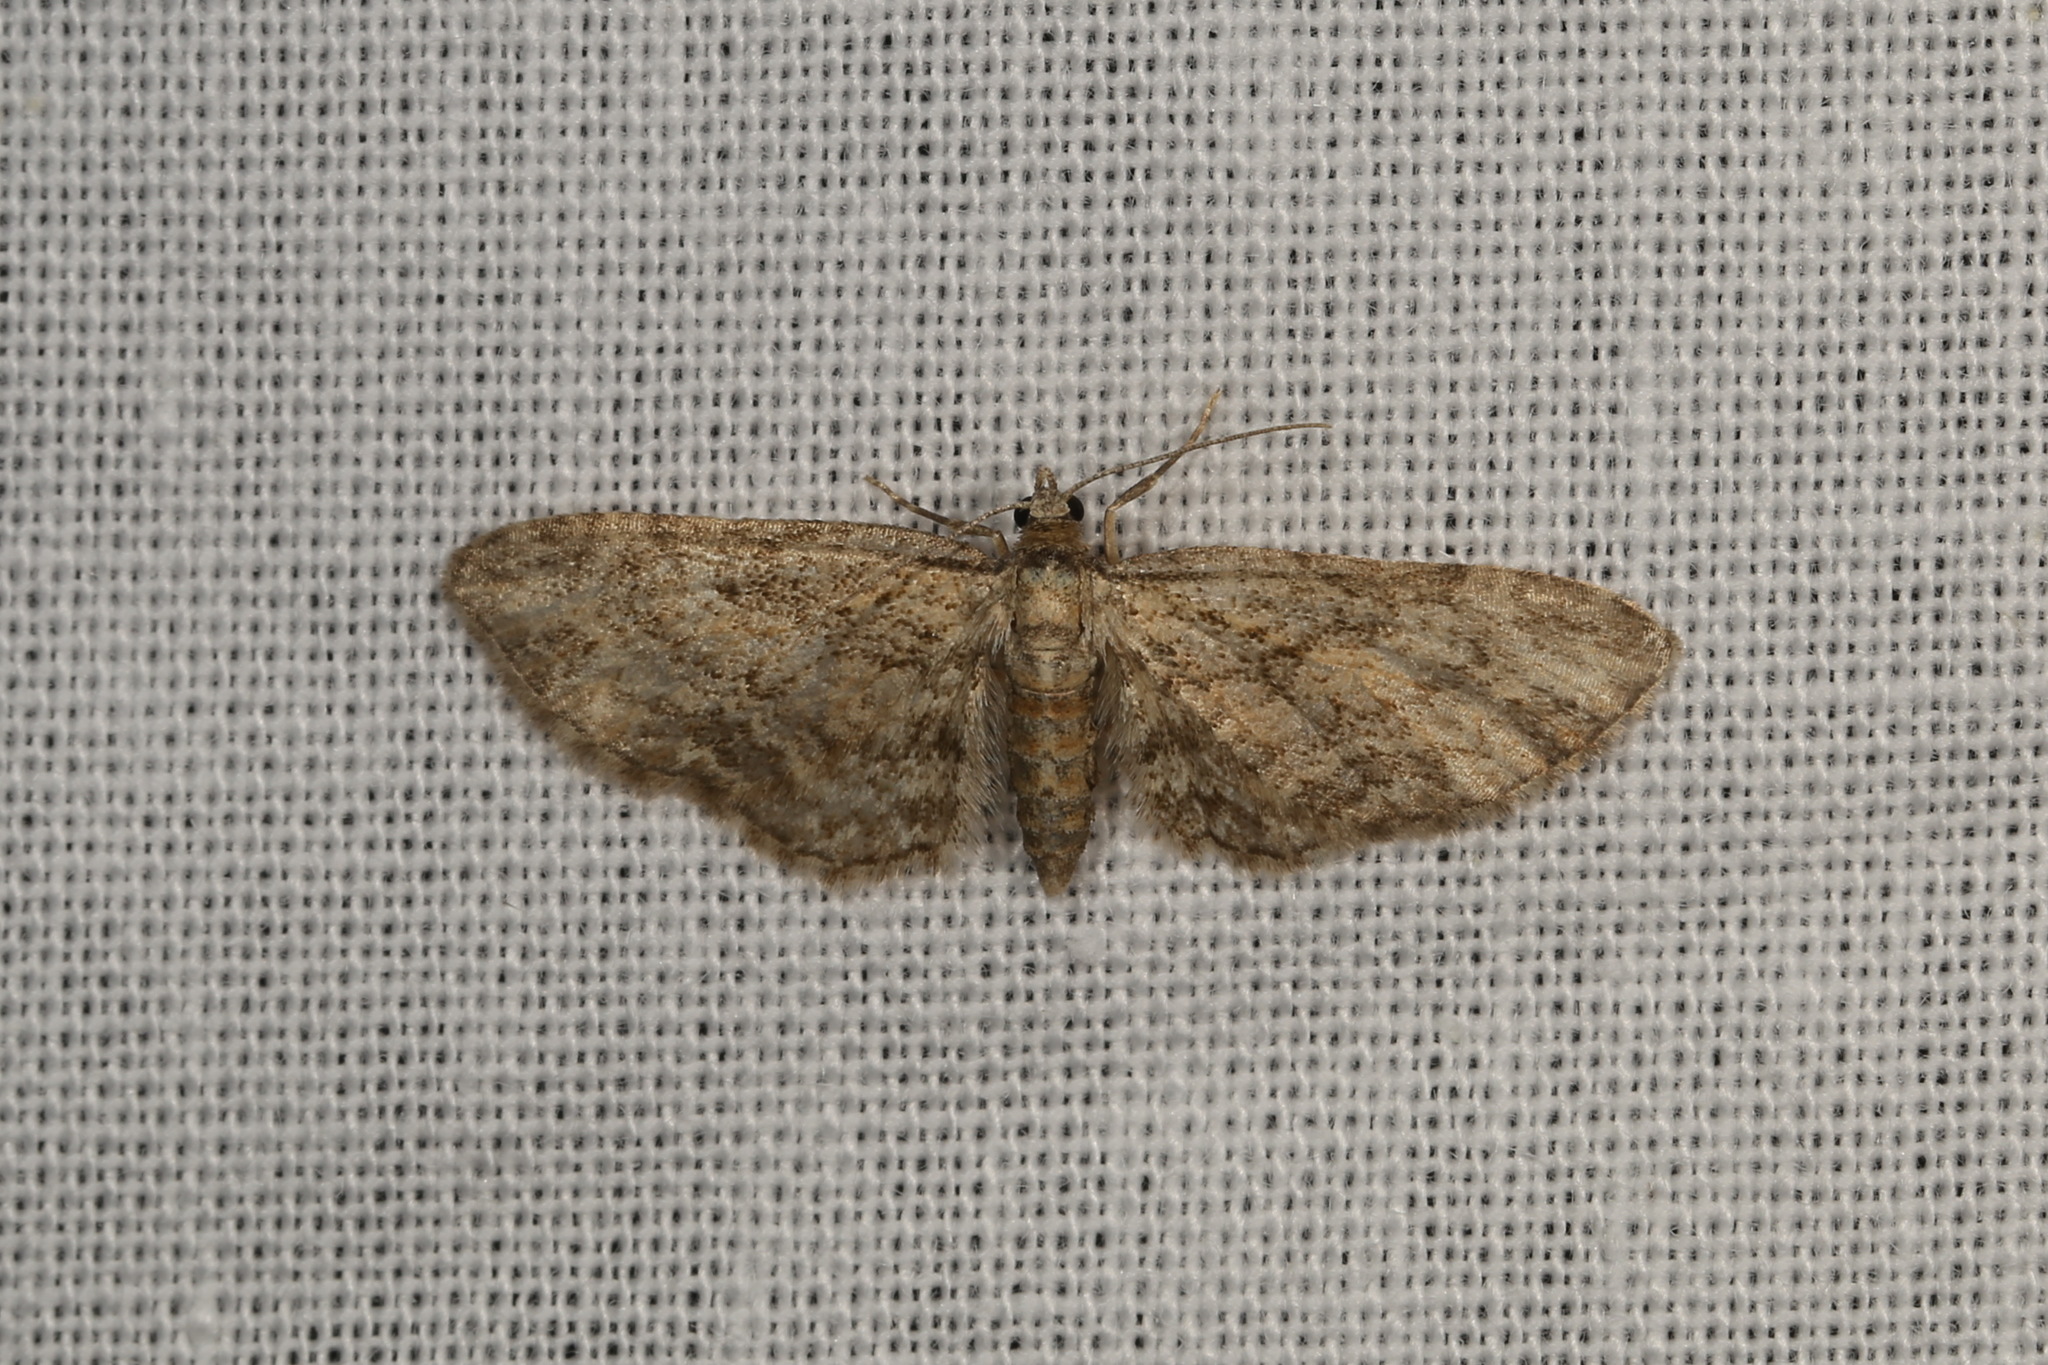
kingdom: Animalia
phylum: Arthropoda
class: Insecta
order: Lepidoptera
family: Geometridae
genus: Eupithecia
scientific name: Eupithecia inturbata
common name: Maple pug
